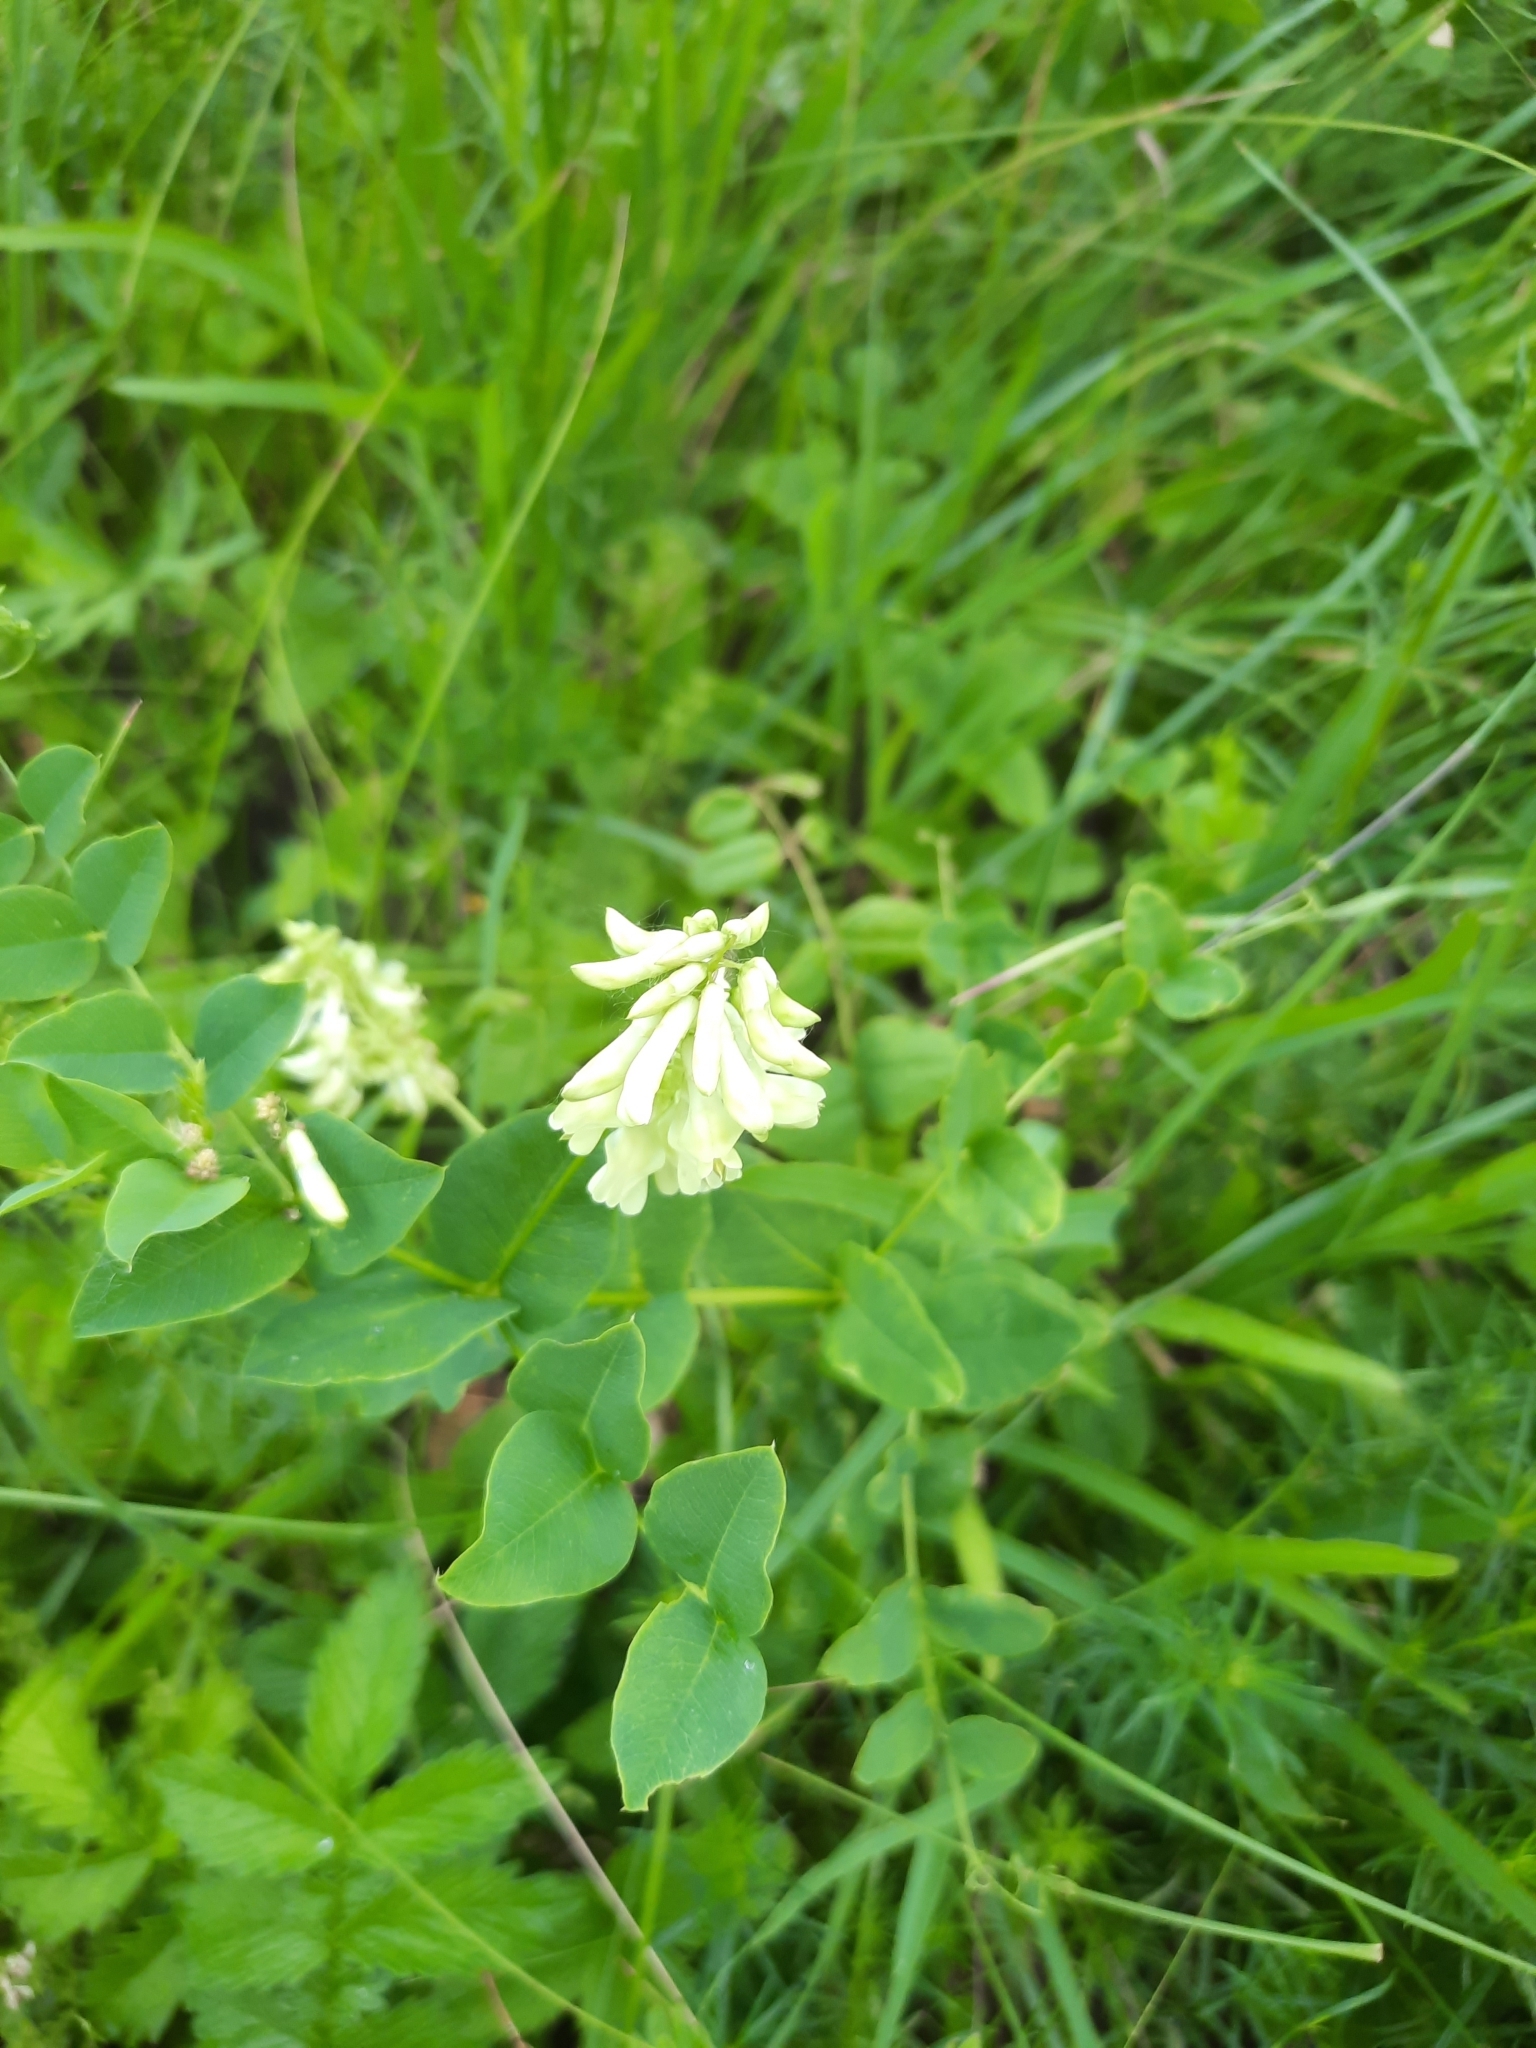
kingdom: Plantae
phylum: Tracheophyta
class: Magnoliopsida
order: Fabales
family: Fabaceae
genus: Vicia
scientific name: Vicia pisiformis
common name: Pale-flower vetch
